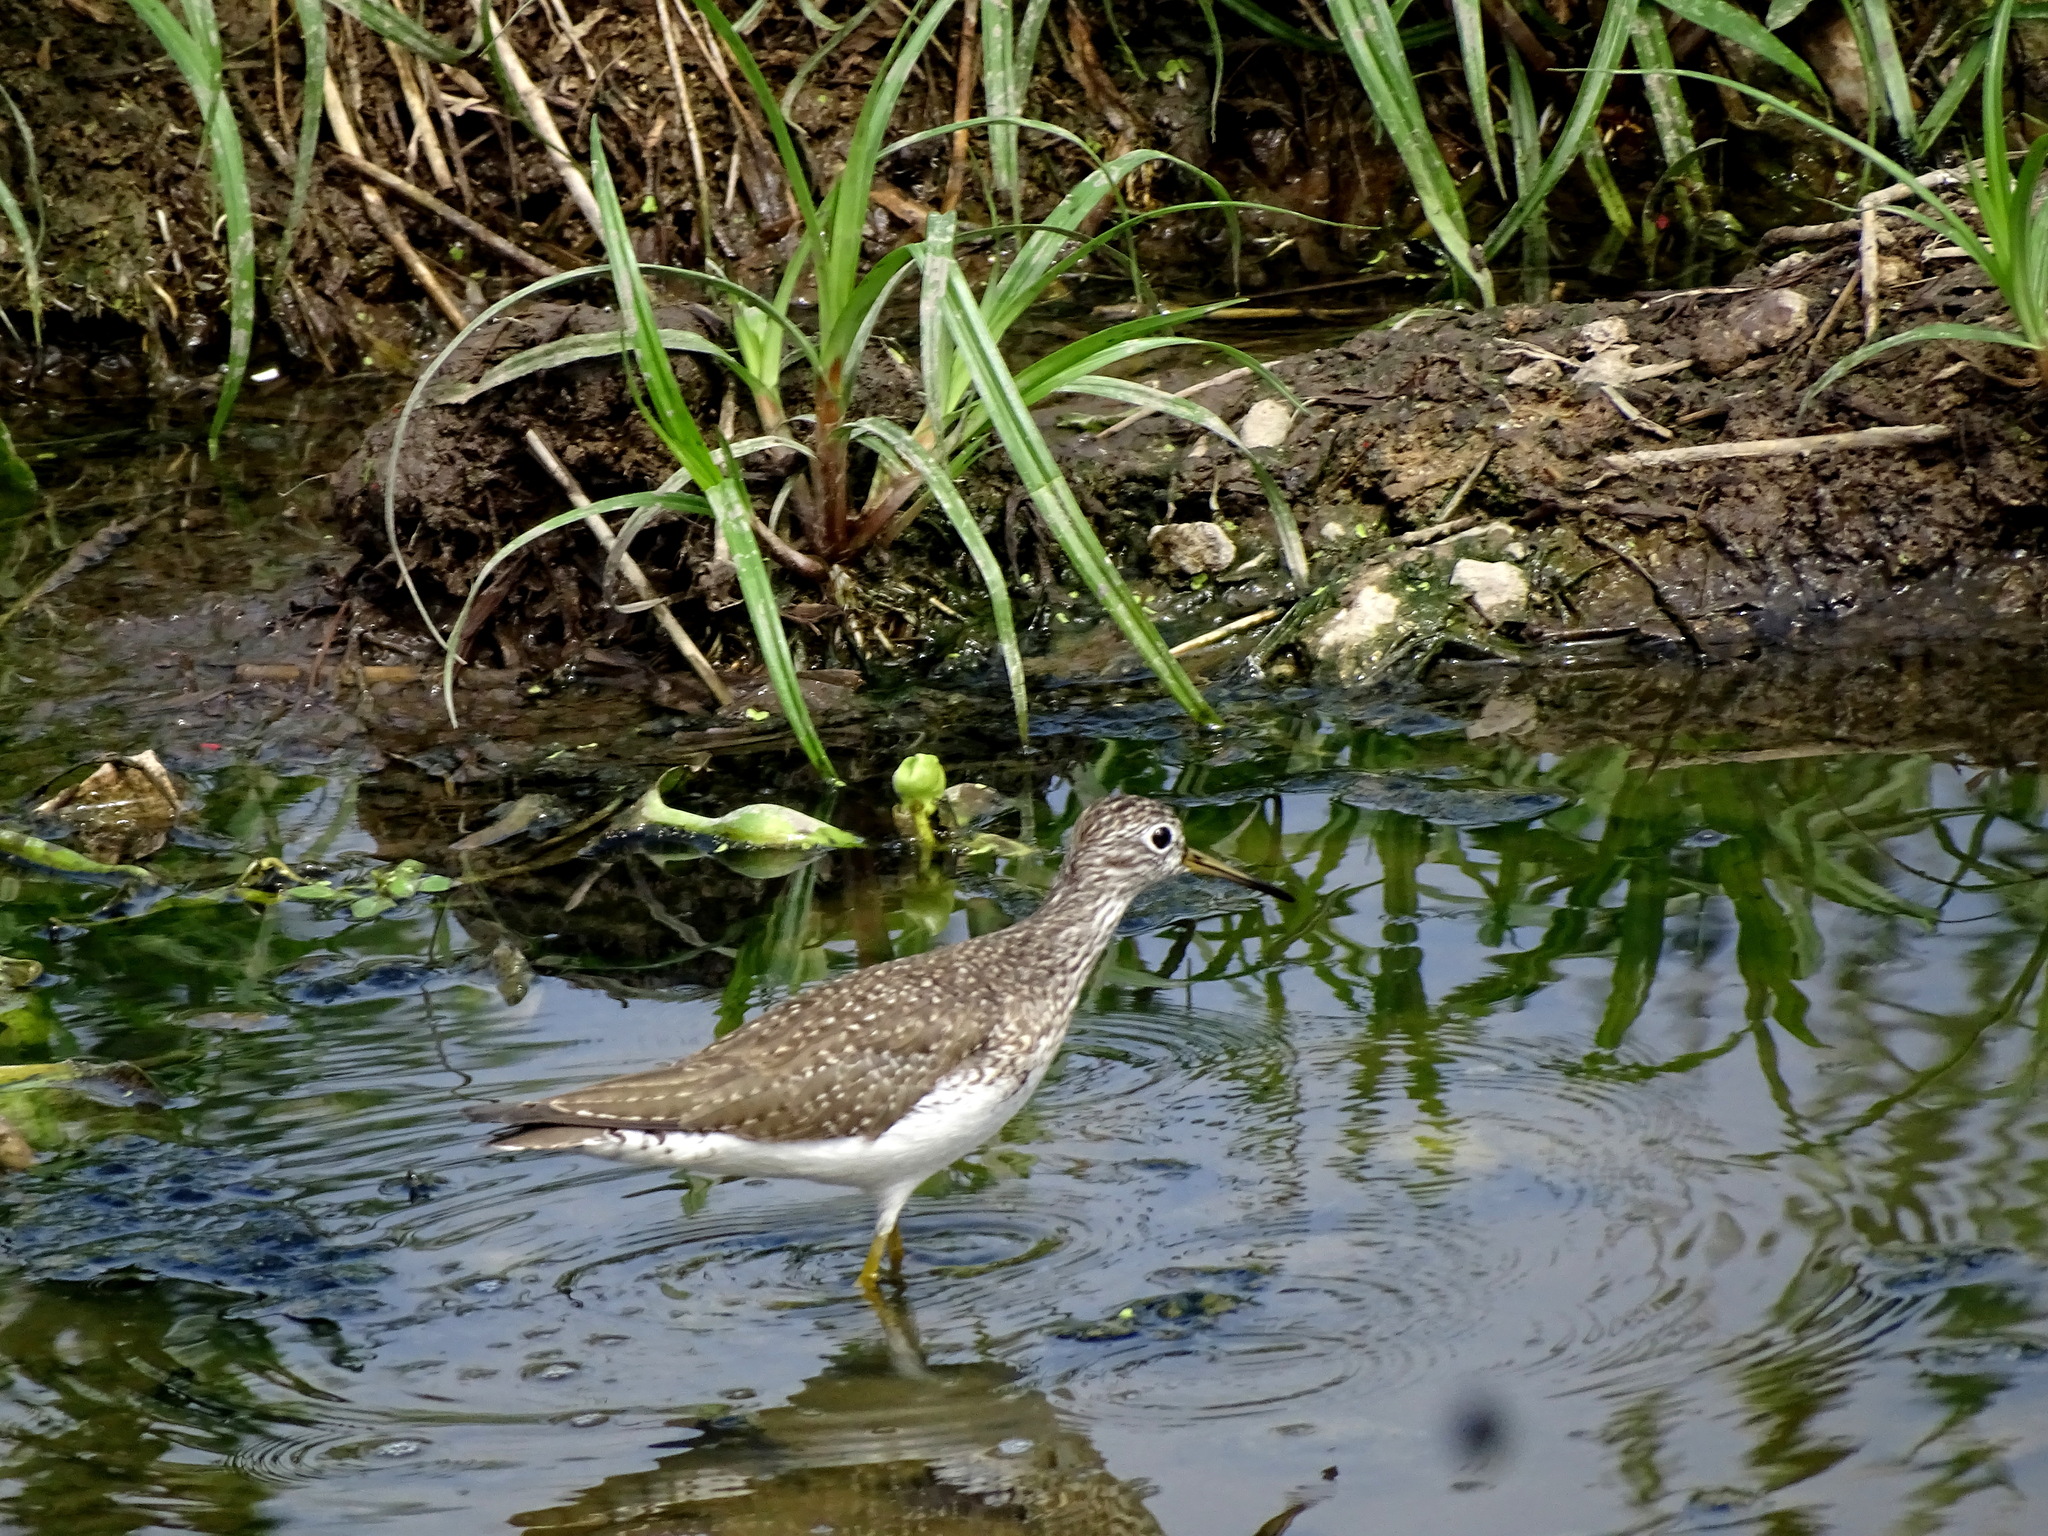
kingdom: Animalia
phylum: Chordata
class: Aves
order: Charadriiformes
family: Scolopacidae
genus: Tringa
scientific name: Tringa solitaria
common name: Solitary sandpiper
